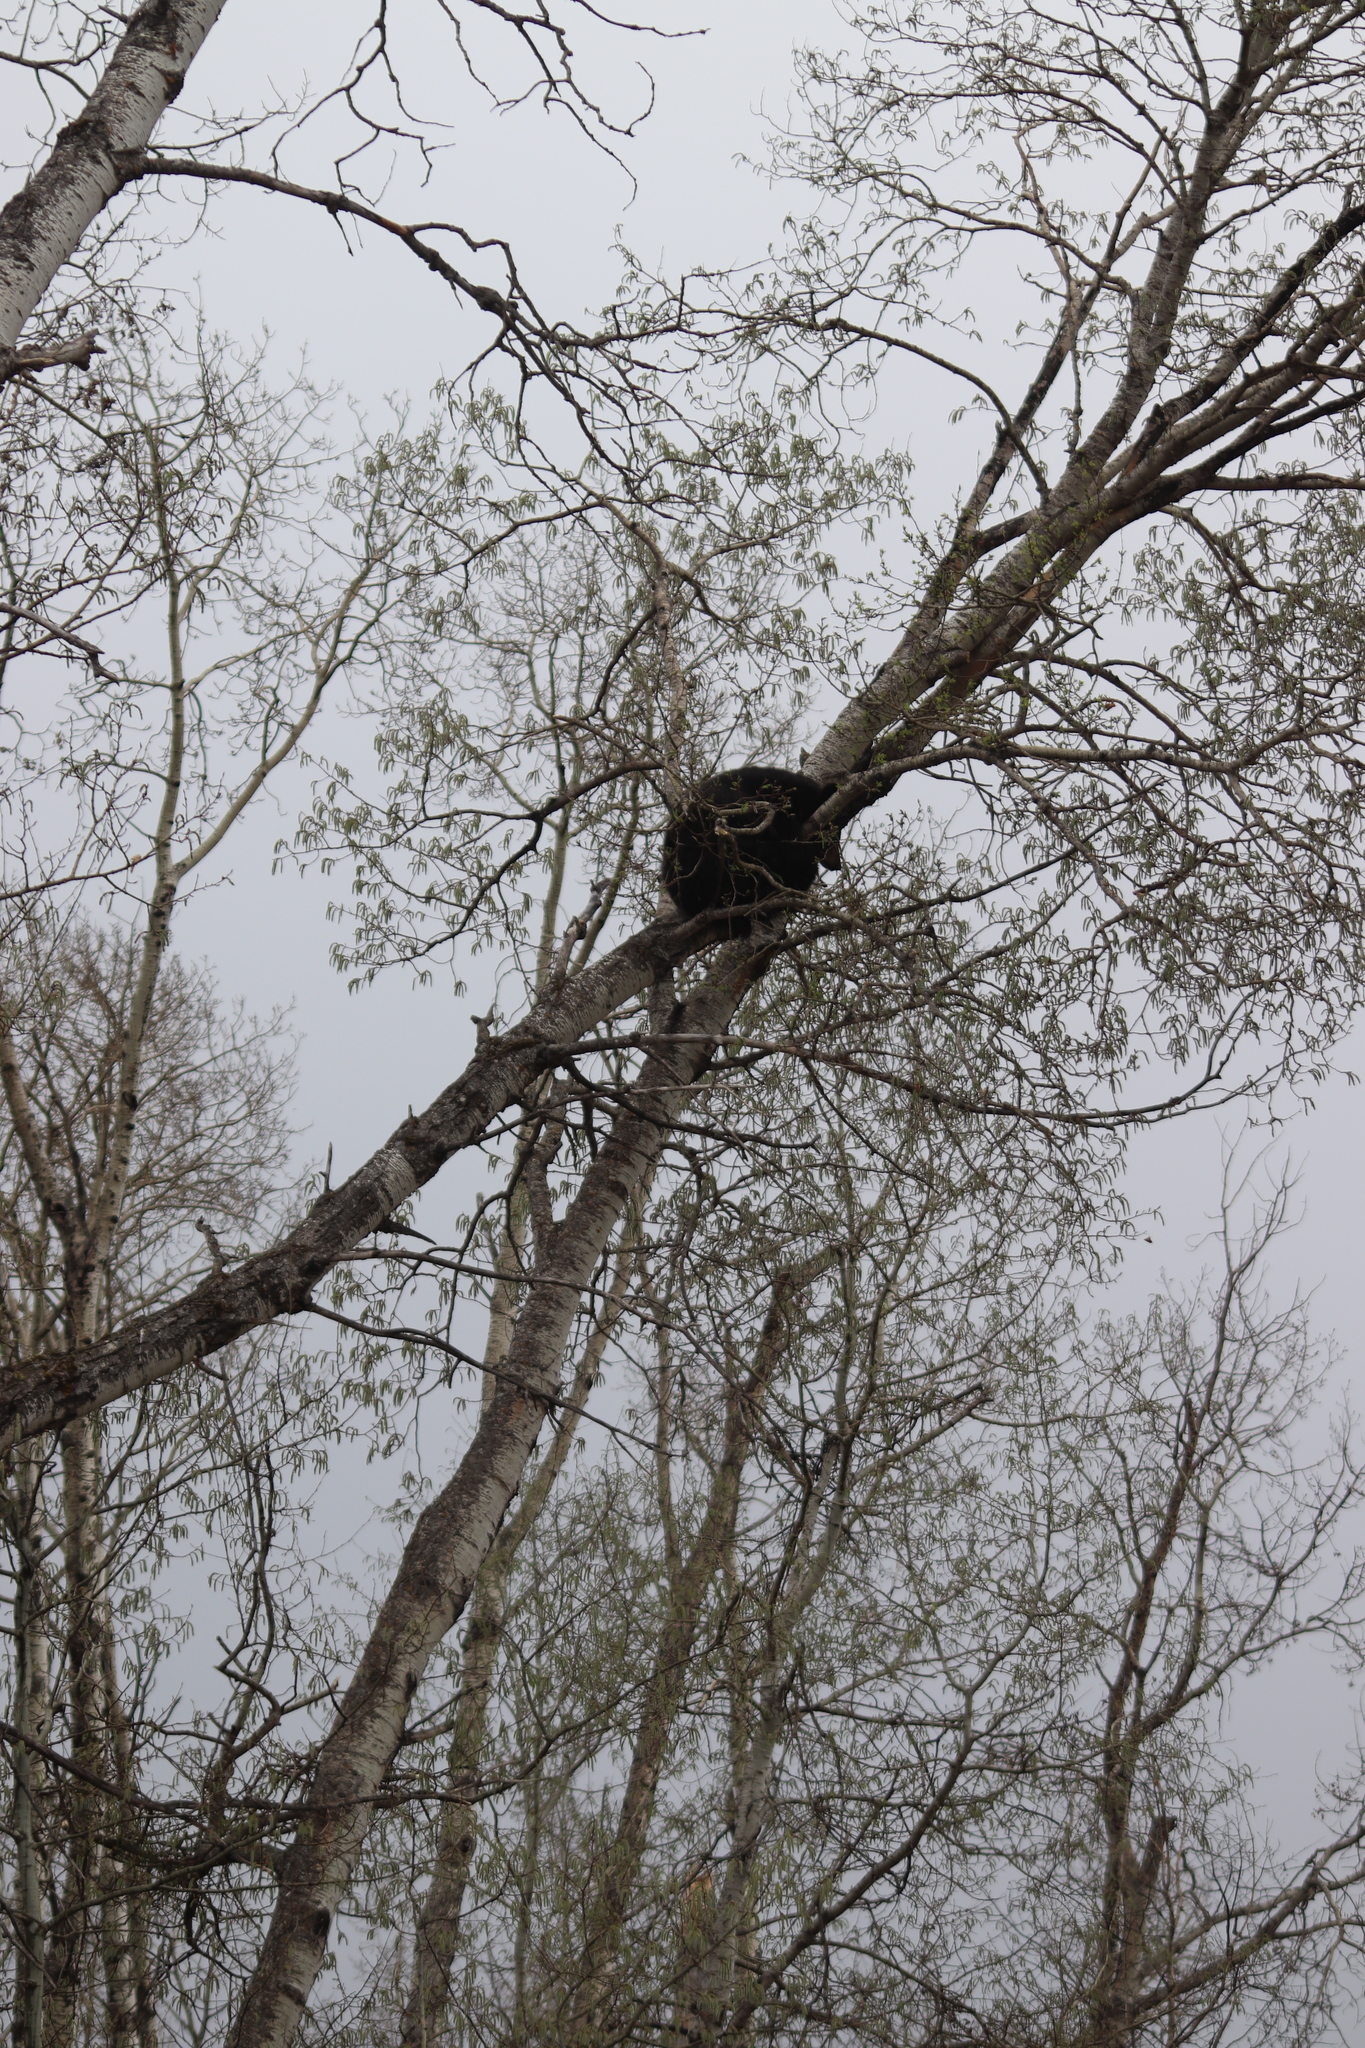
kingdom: Animalia
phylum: Chordata
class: Mammalia
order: Carnivora
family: Ursidae
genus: Ursus
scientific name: Ursus americanus
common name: American black bear
